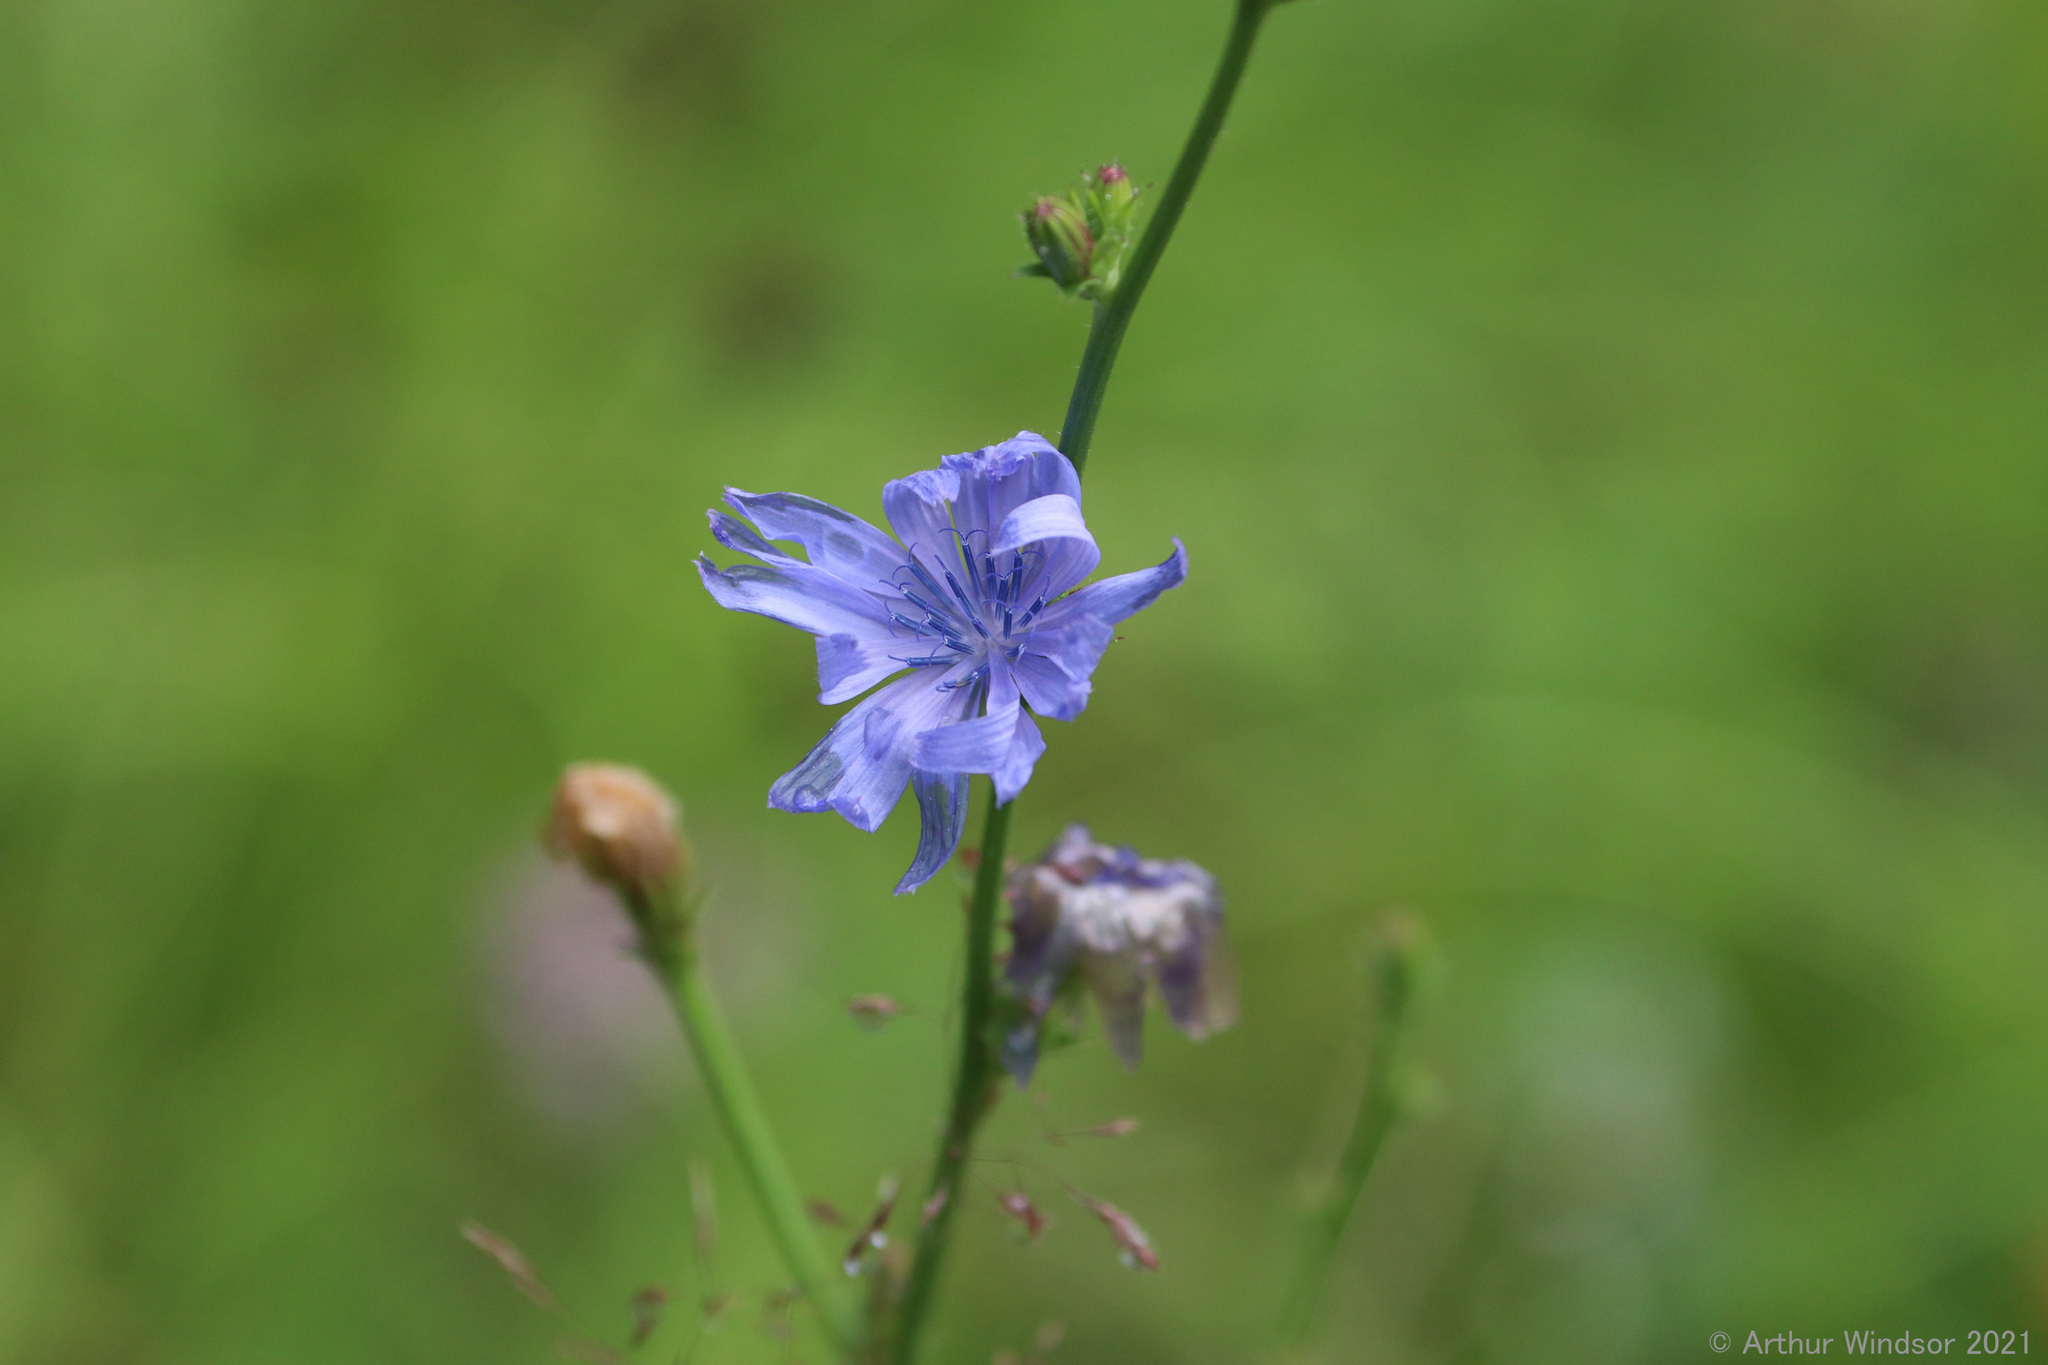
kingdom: Plantae
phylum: Tracheophyta
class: Magnoliopsida
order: Asterales
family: Asteraceae
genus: Cichorium
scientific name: Cichorium intybus
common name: Chicory
